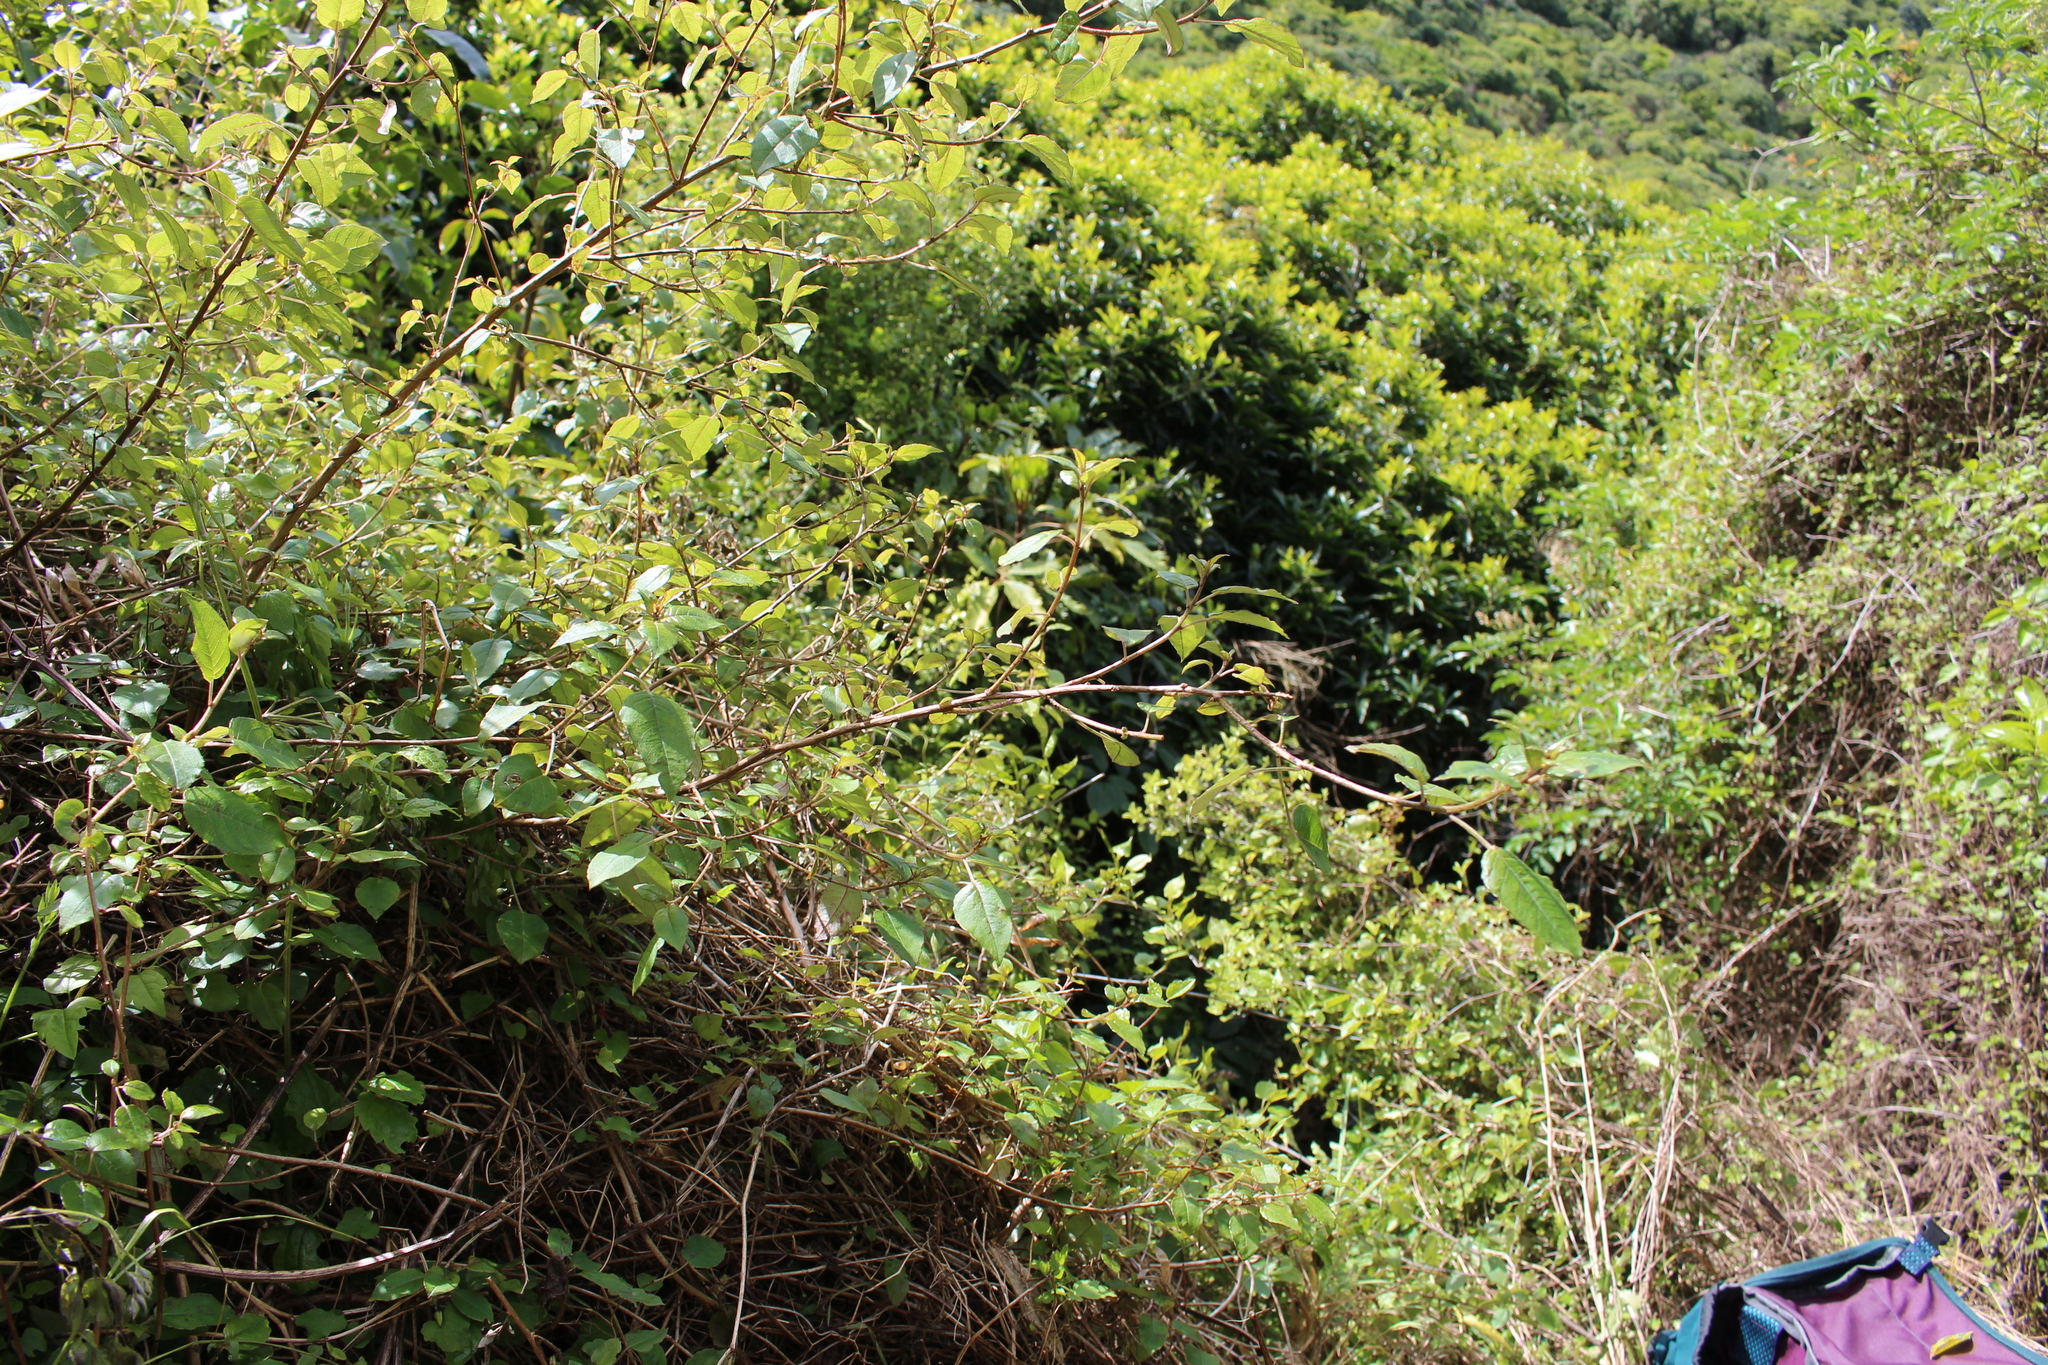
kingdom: Plantae
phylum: Tracheophyta
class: Magnoliopsida
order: Myrtales
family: Onagraceae
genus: Fuchsia
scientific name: Fuchsia colensoi
